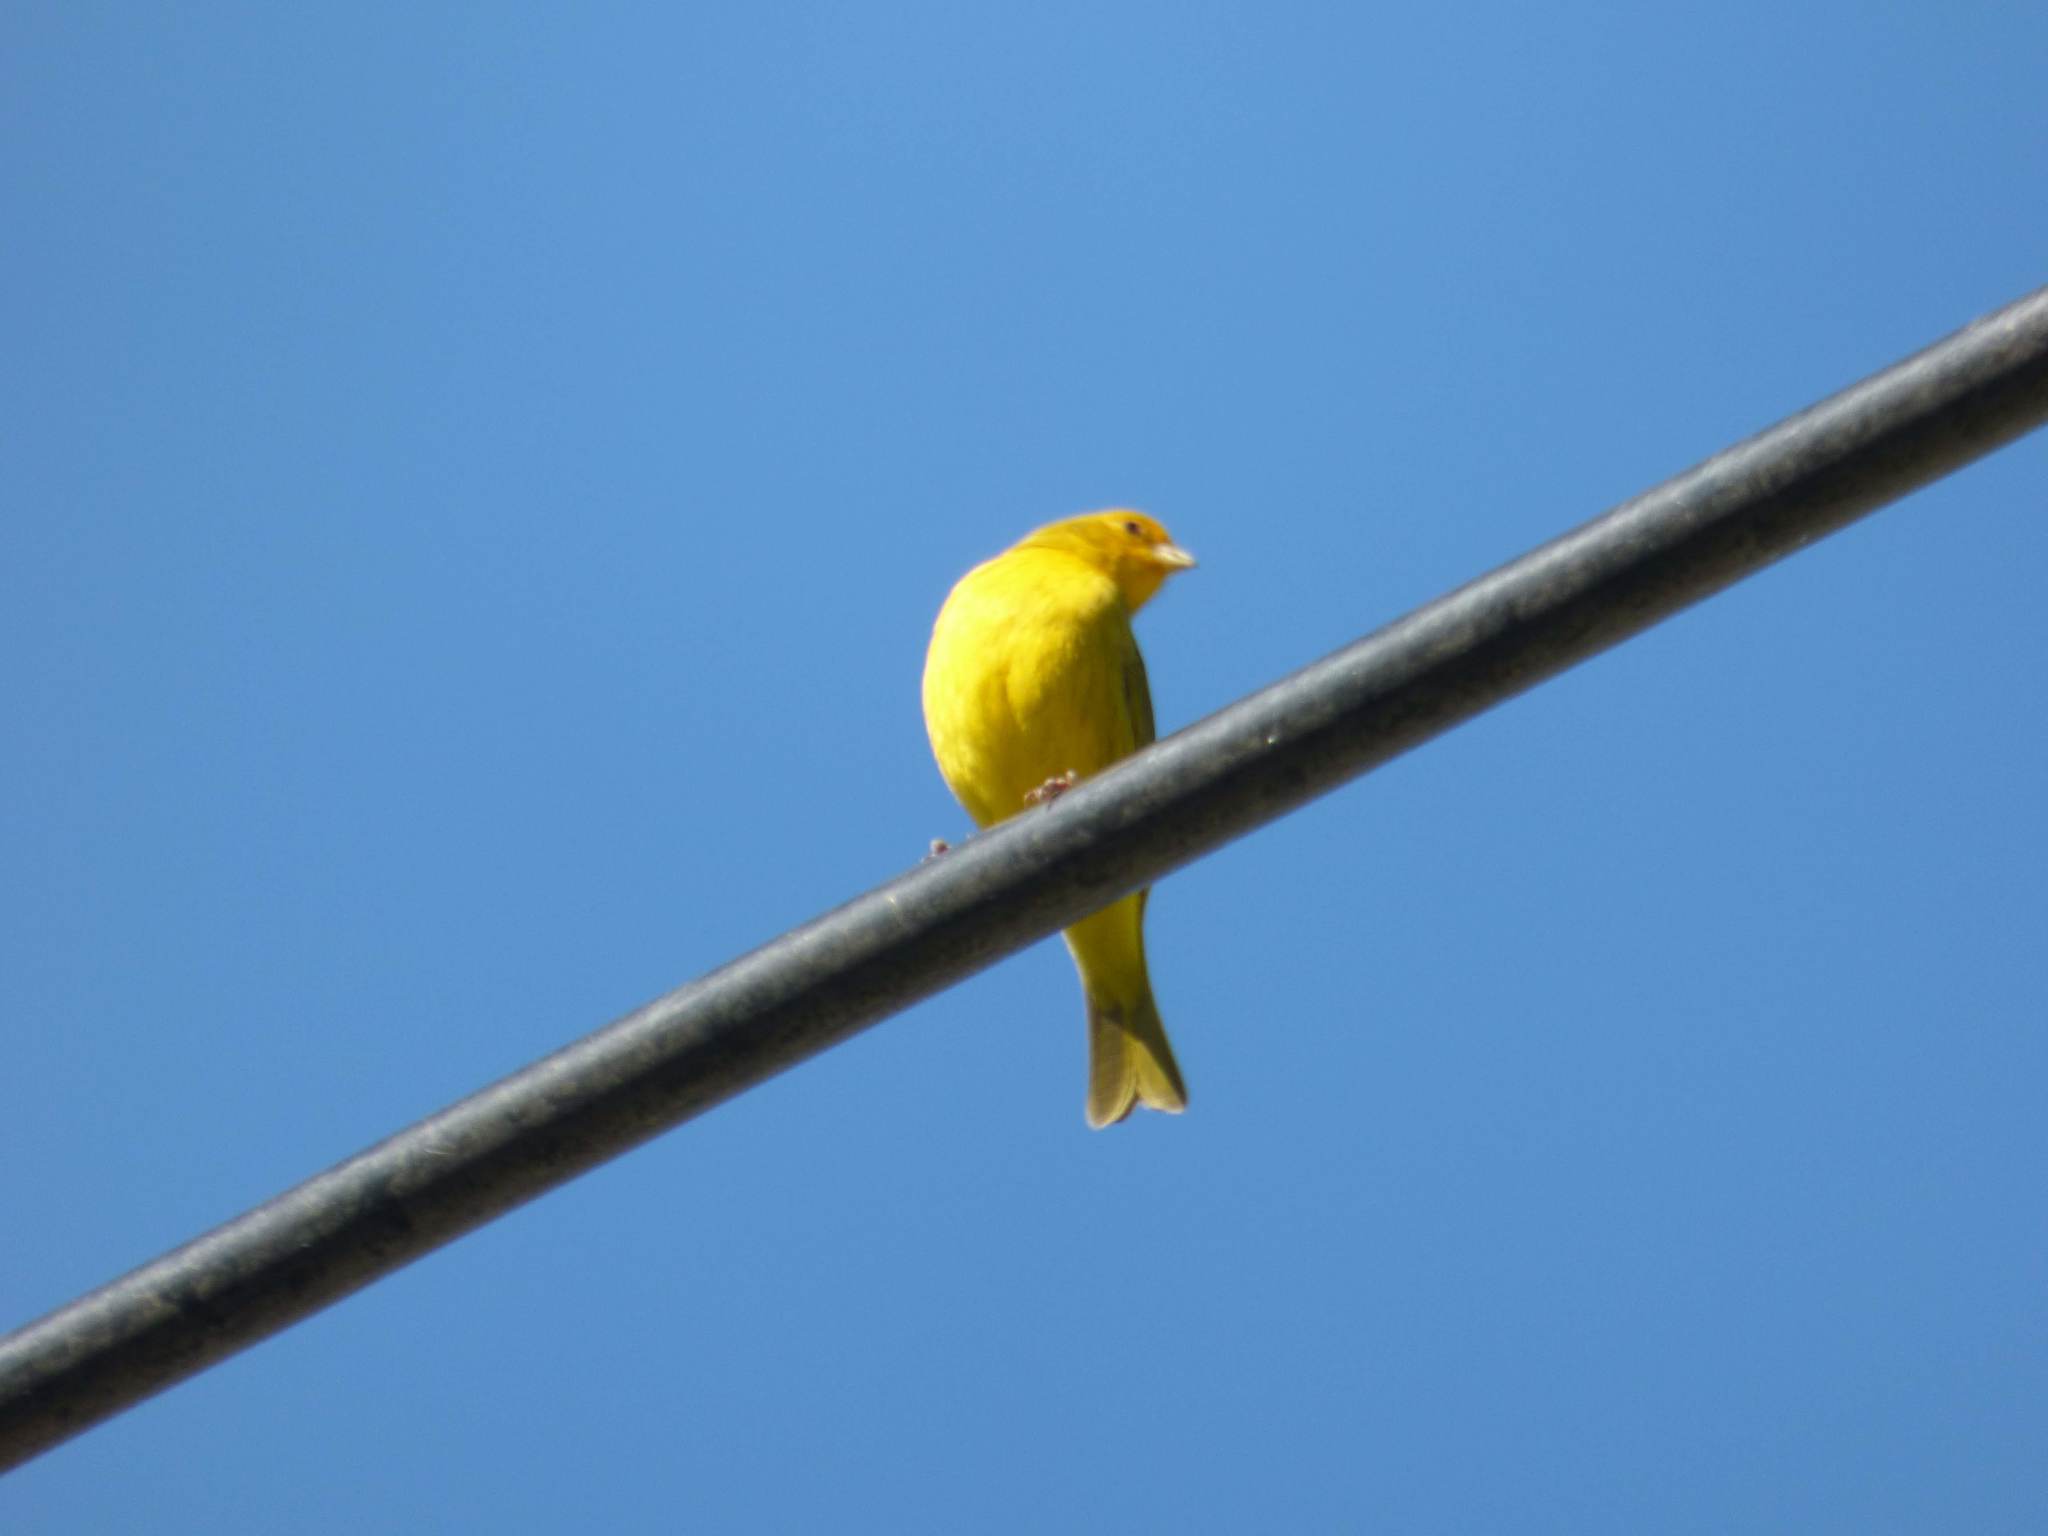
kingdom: Animalia
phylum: Chordata
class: Aves
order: Passeriformes
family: Thraupidae
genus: Sicalis
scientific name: Sicalis flaveola
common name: Saffron finch
